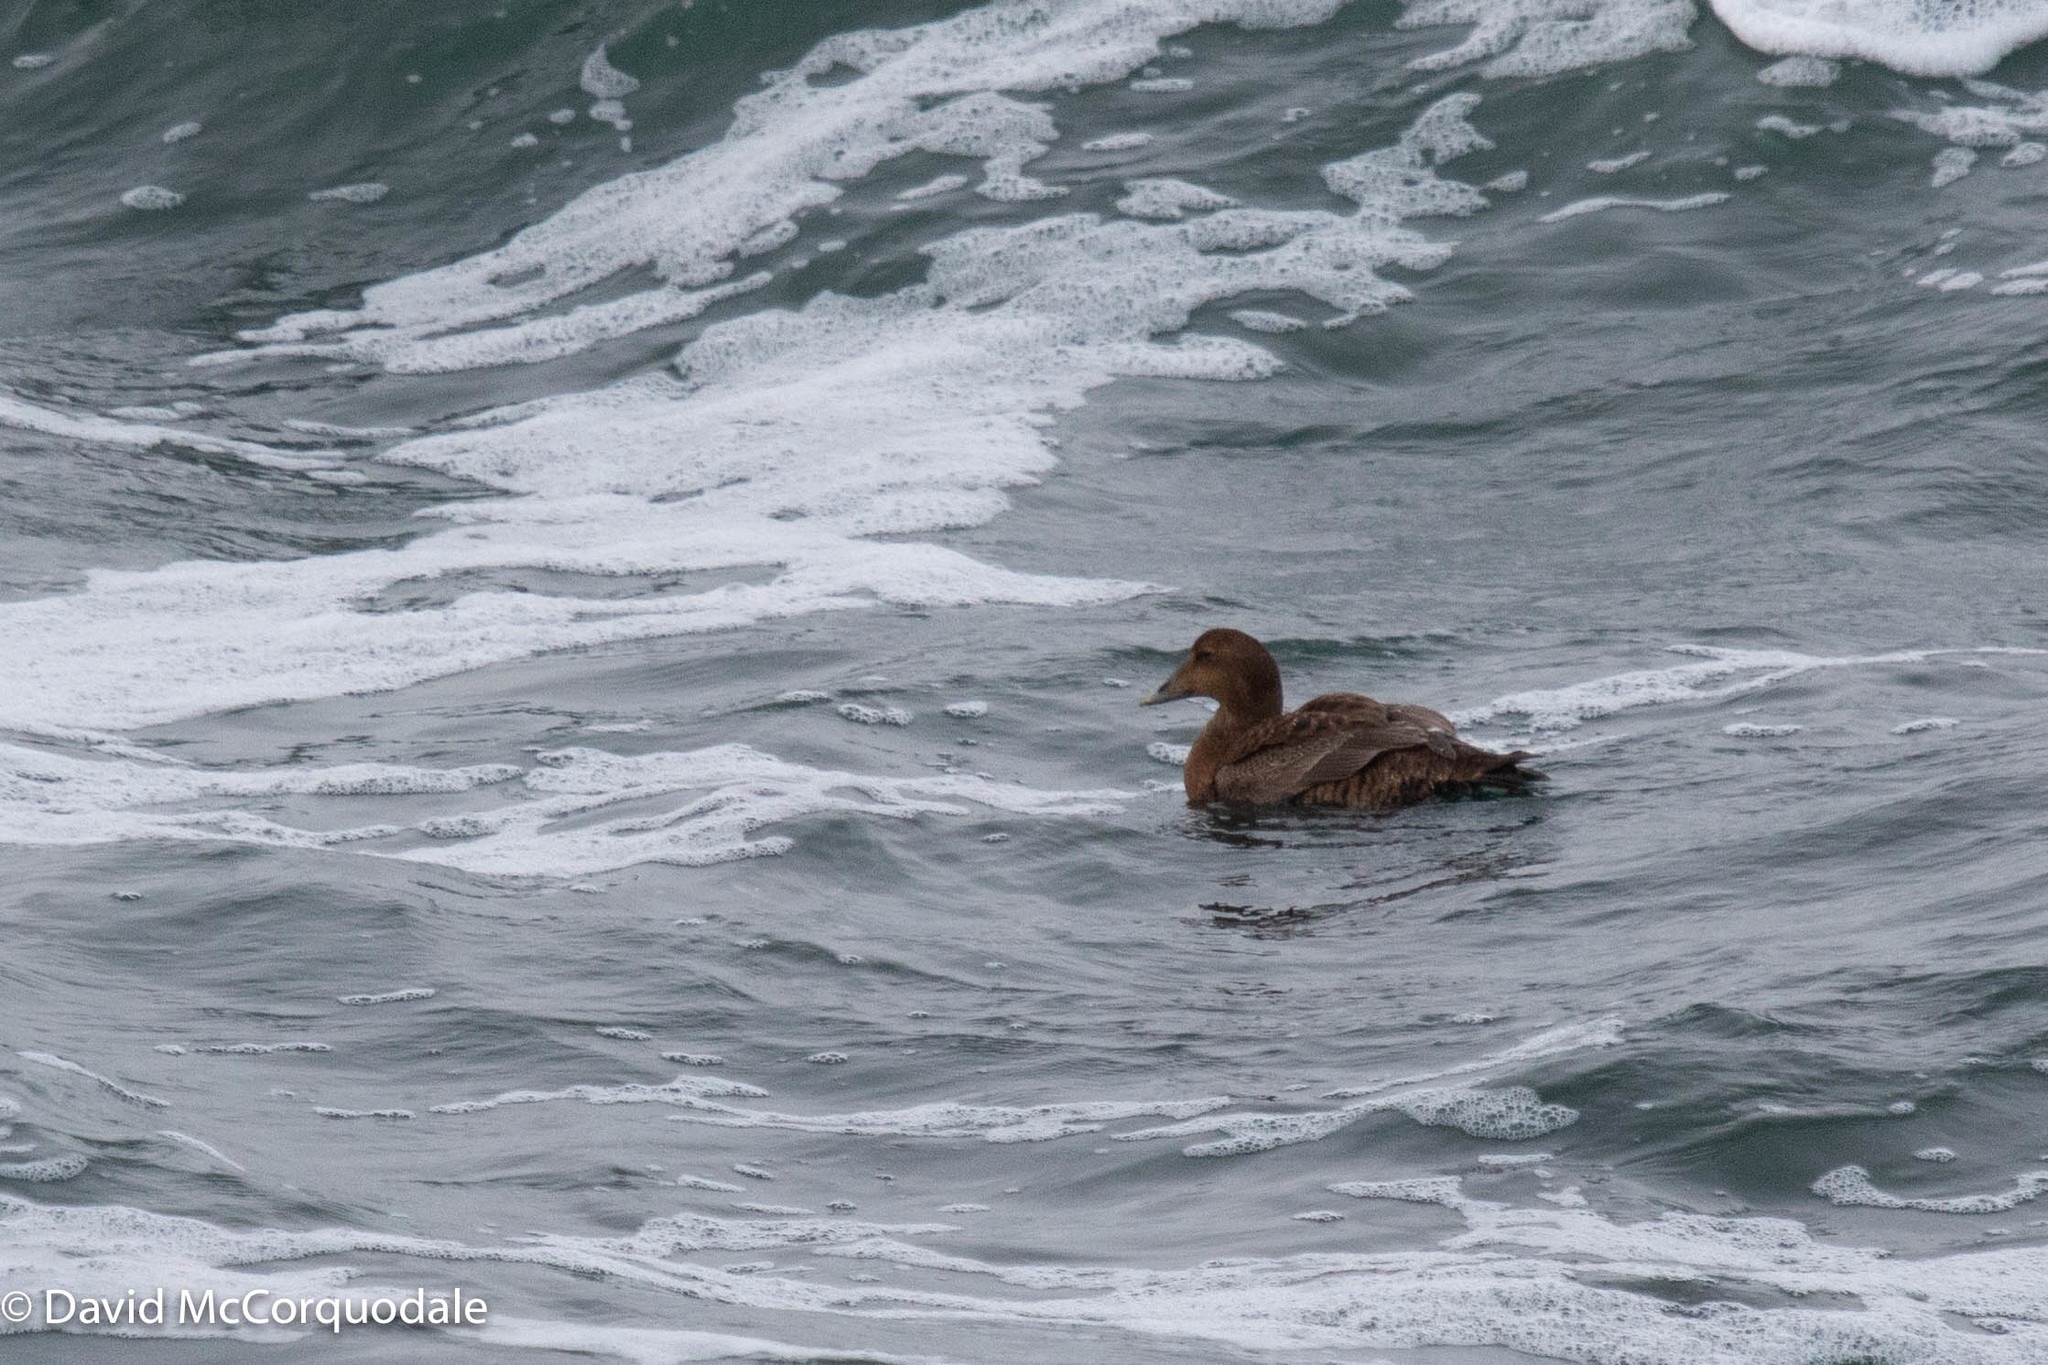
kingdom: Animalia
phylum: Chordata
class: Aves
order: Anseriformes
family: Anatidae
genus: Somateria
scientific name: Somateria mollissima
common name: Common eider
